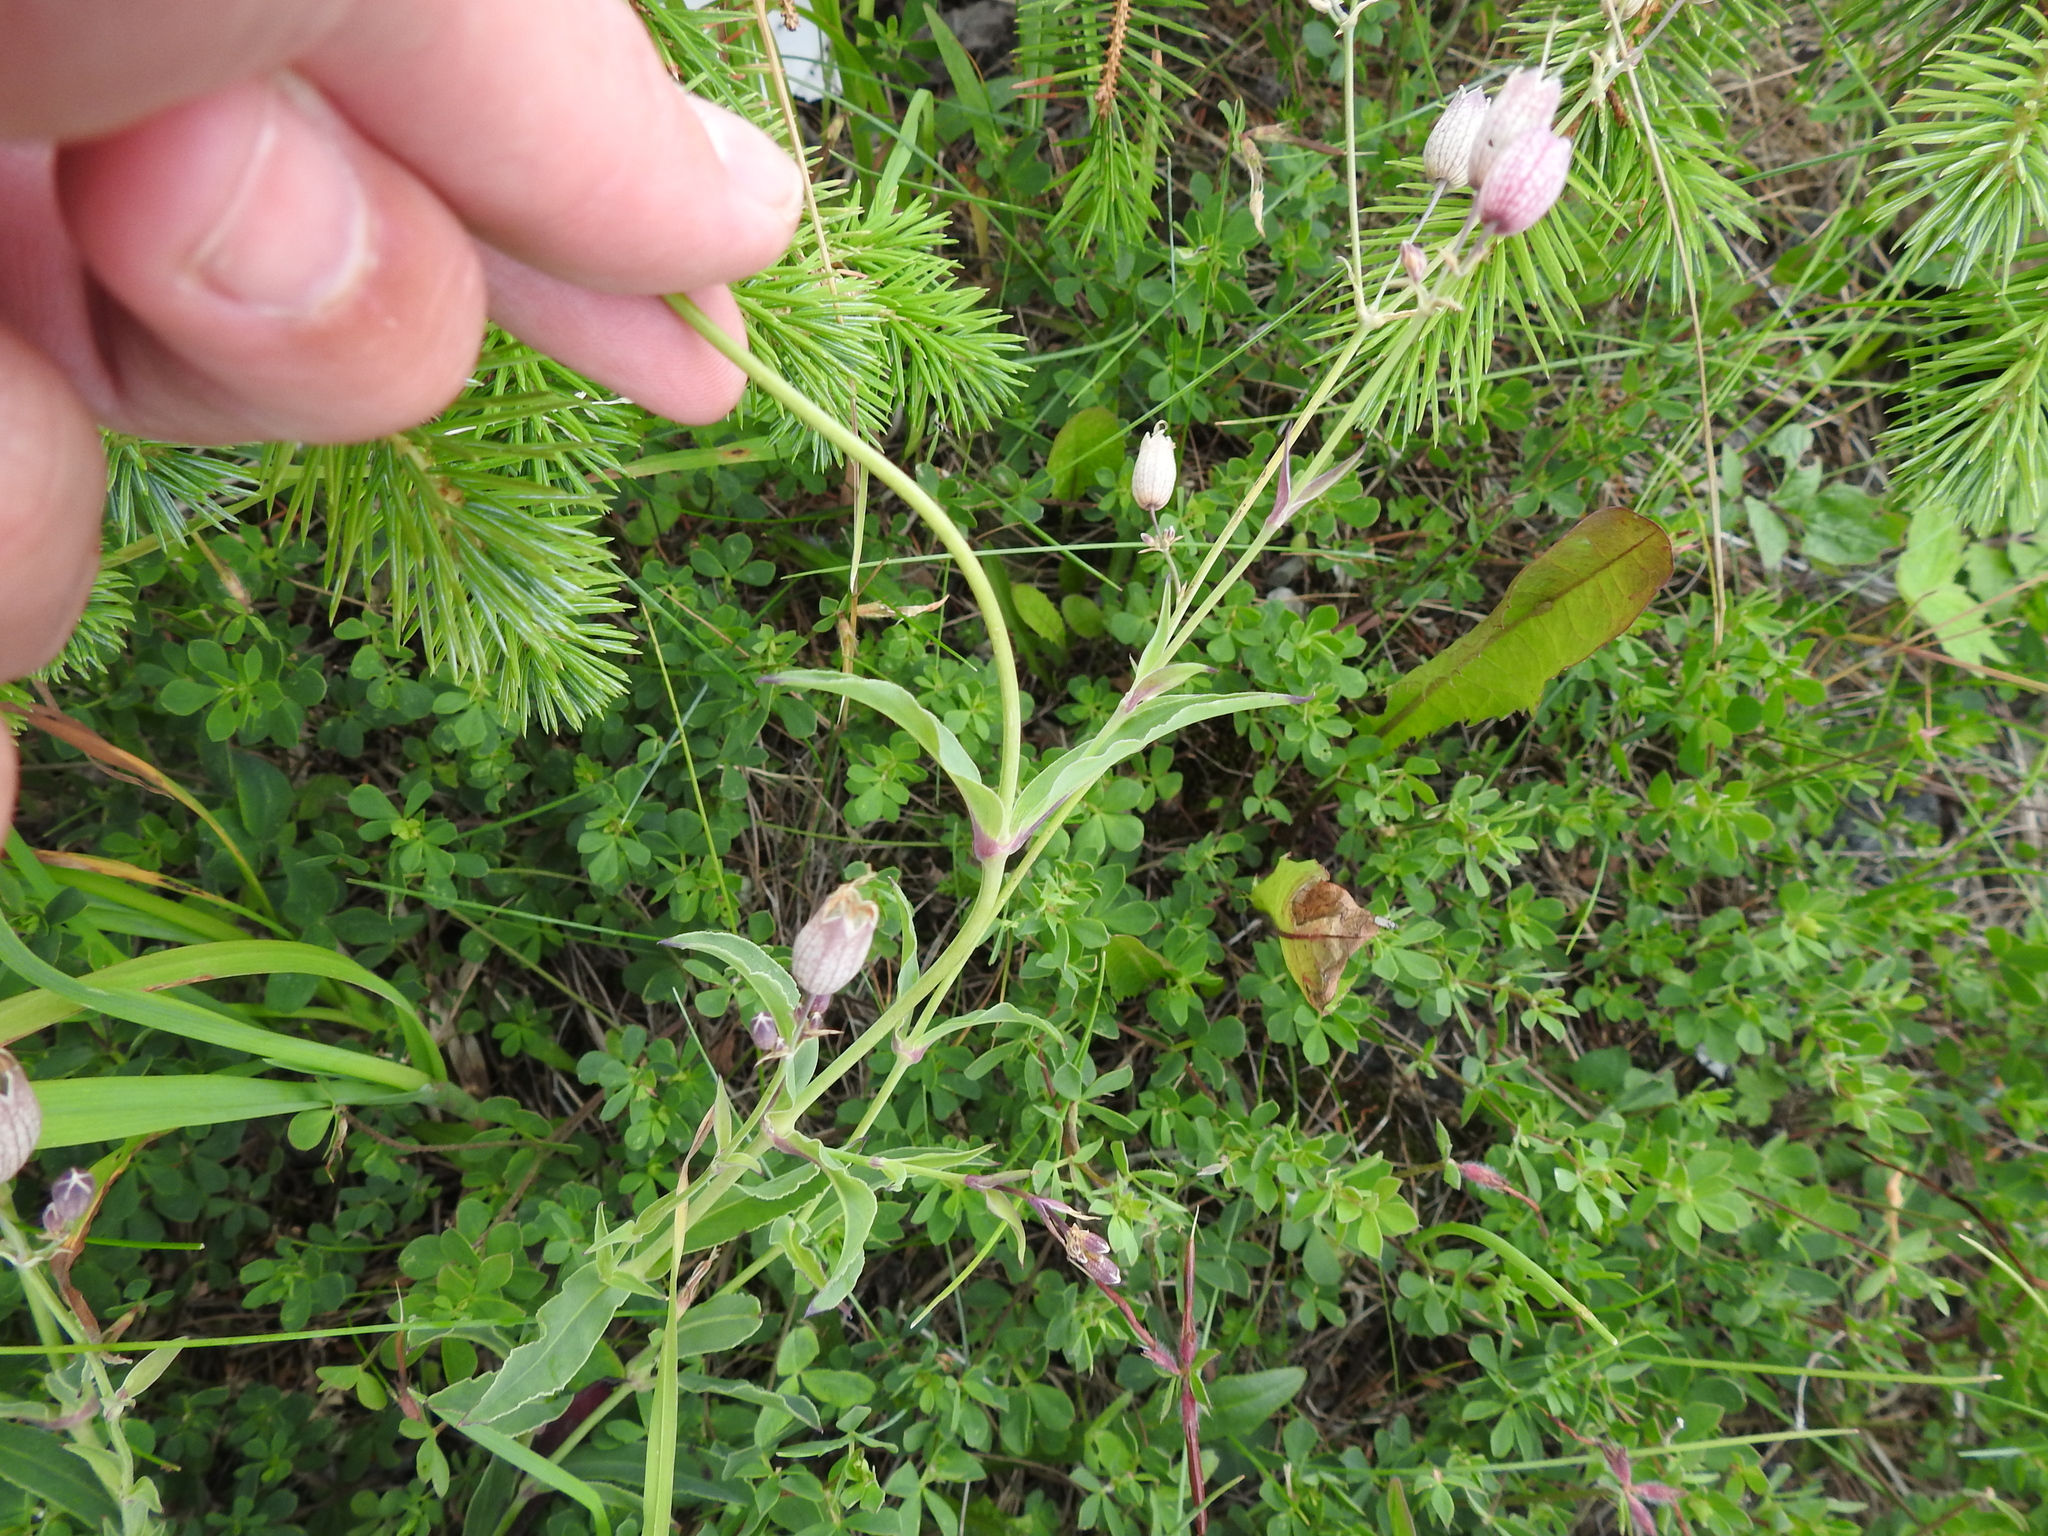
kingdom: Plantae
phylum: Tracheophyta
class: Magnoliopsida
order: Caryophyllales
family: Caryophyllaceae
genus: Silene
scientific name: Silene vulgaris
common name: Bladder campion
